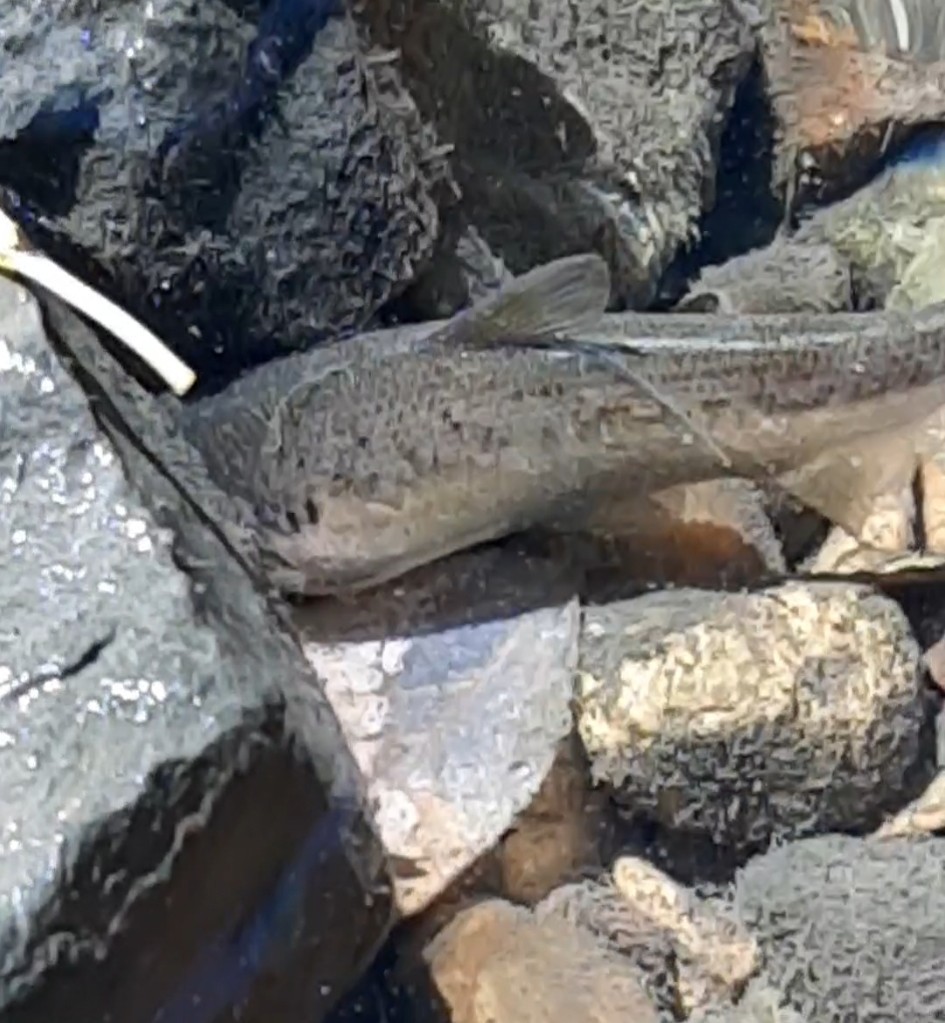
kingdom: Animalia
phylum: Chordata
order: Clupeiformes
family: Clupeidae
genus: Dorosoma
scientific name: Dorosoma cepedianum
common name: Gizzard shad
